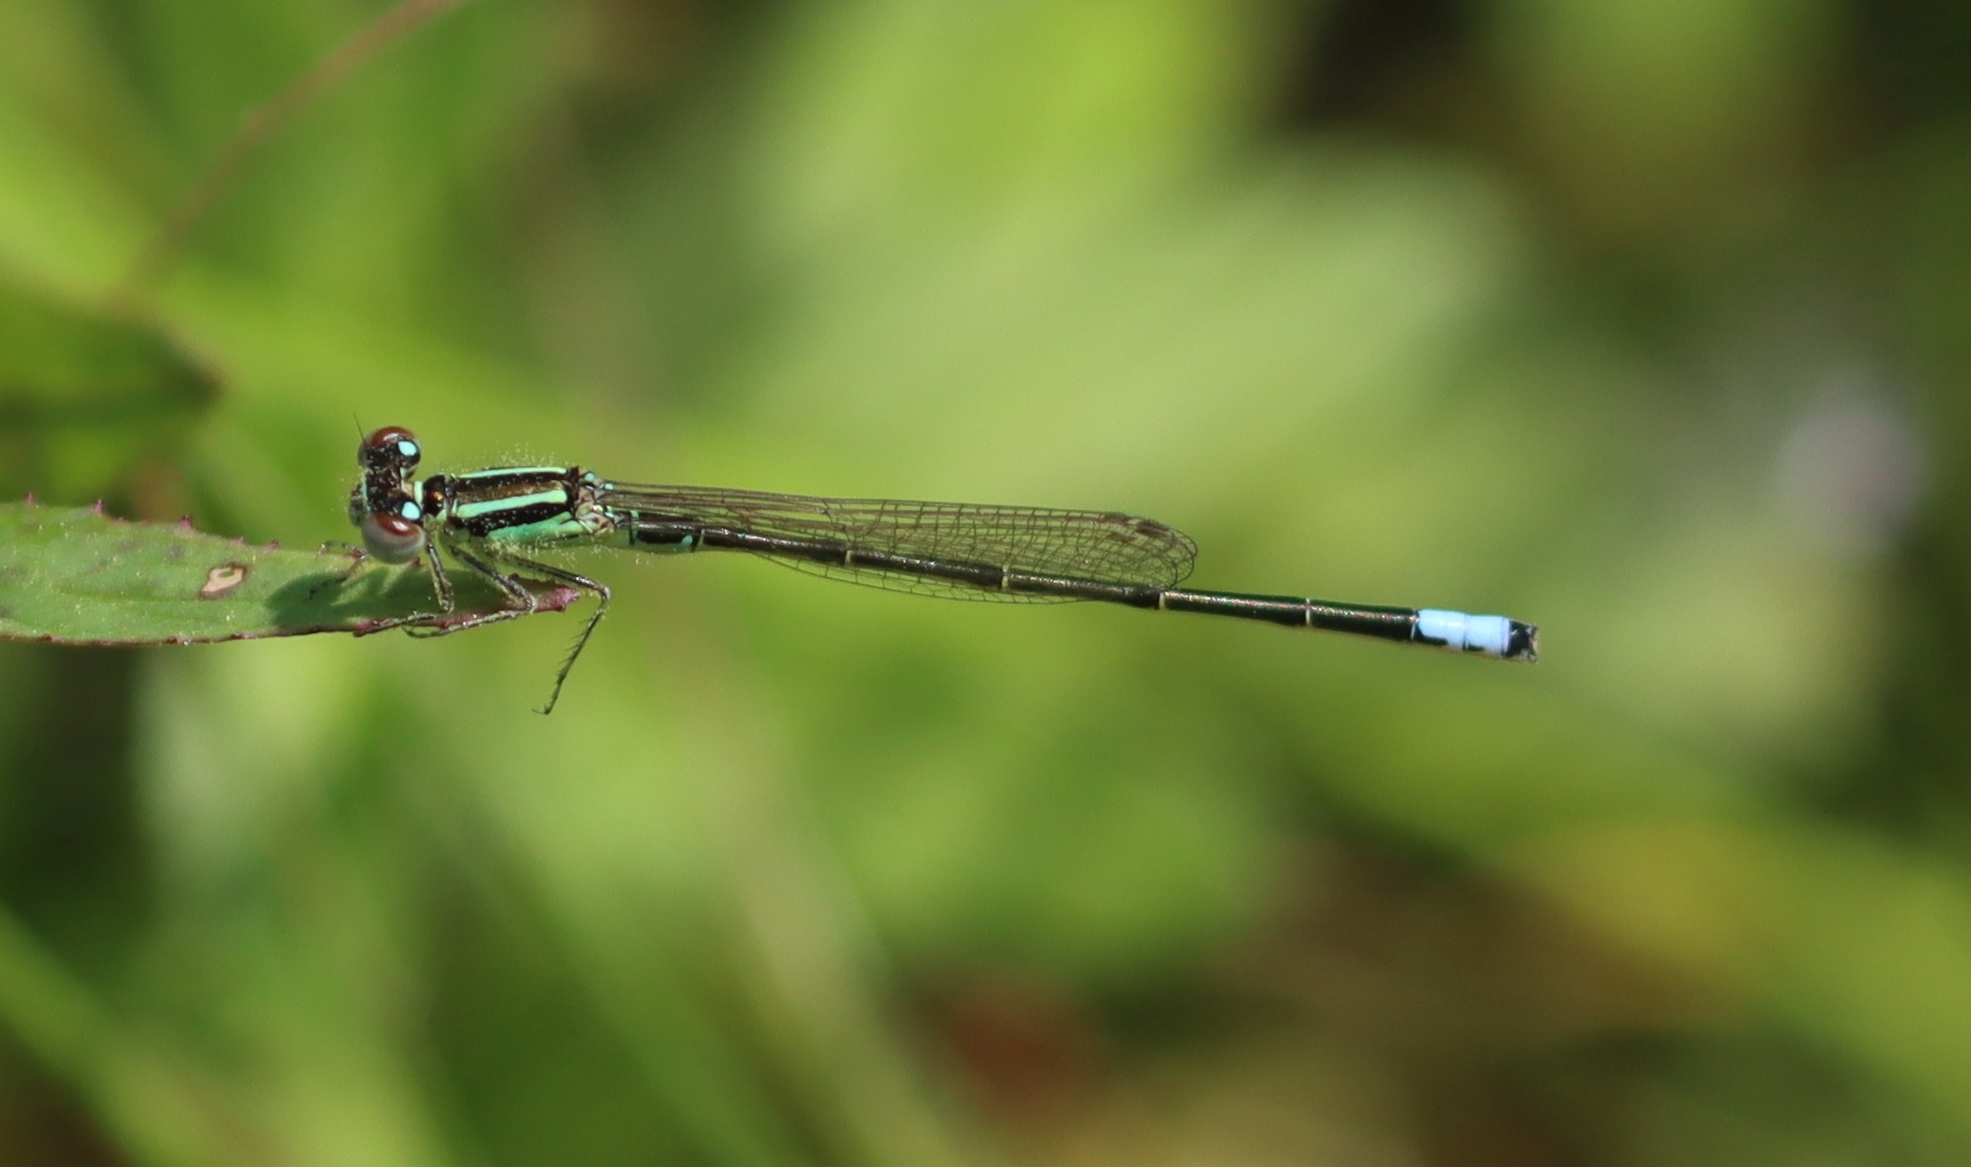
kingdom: Animalia
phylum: Arthropoda
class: Insecta
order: Odonata
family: Coenagrionidae
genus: Ischnura
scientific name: Ischnura verticalis
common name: Eastern forktail
